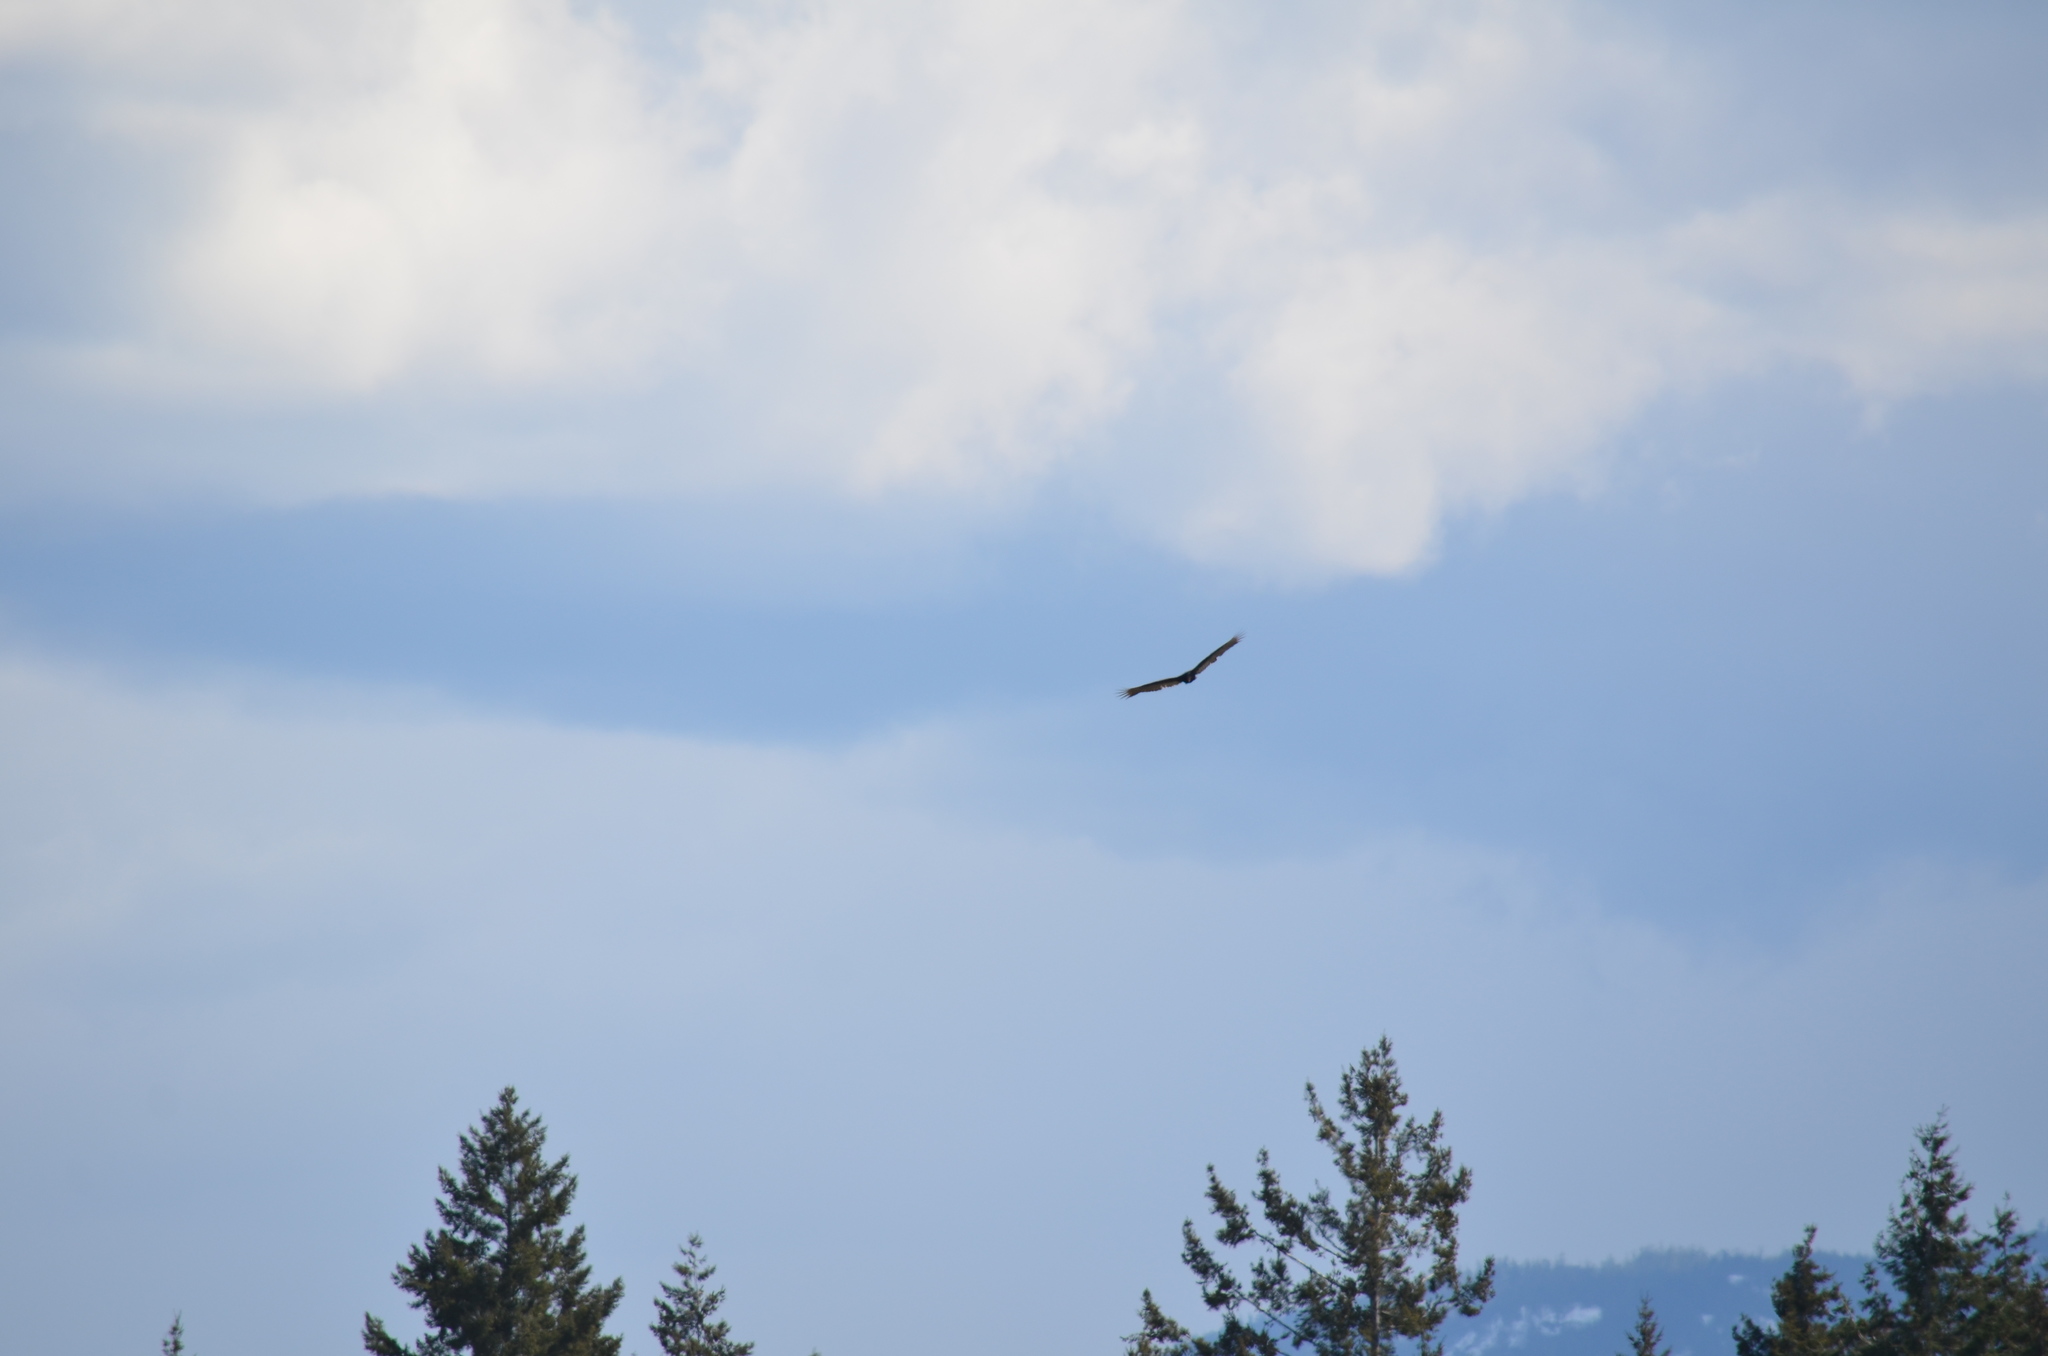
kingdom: Animalia
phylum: Chordata
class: Aves
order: Accipitriformes
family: Cathartidae
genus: Cathartes
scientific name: Cathartes aura
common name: Turkey vulture
